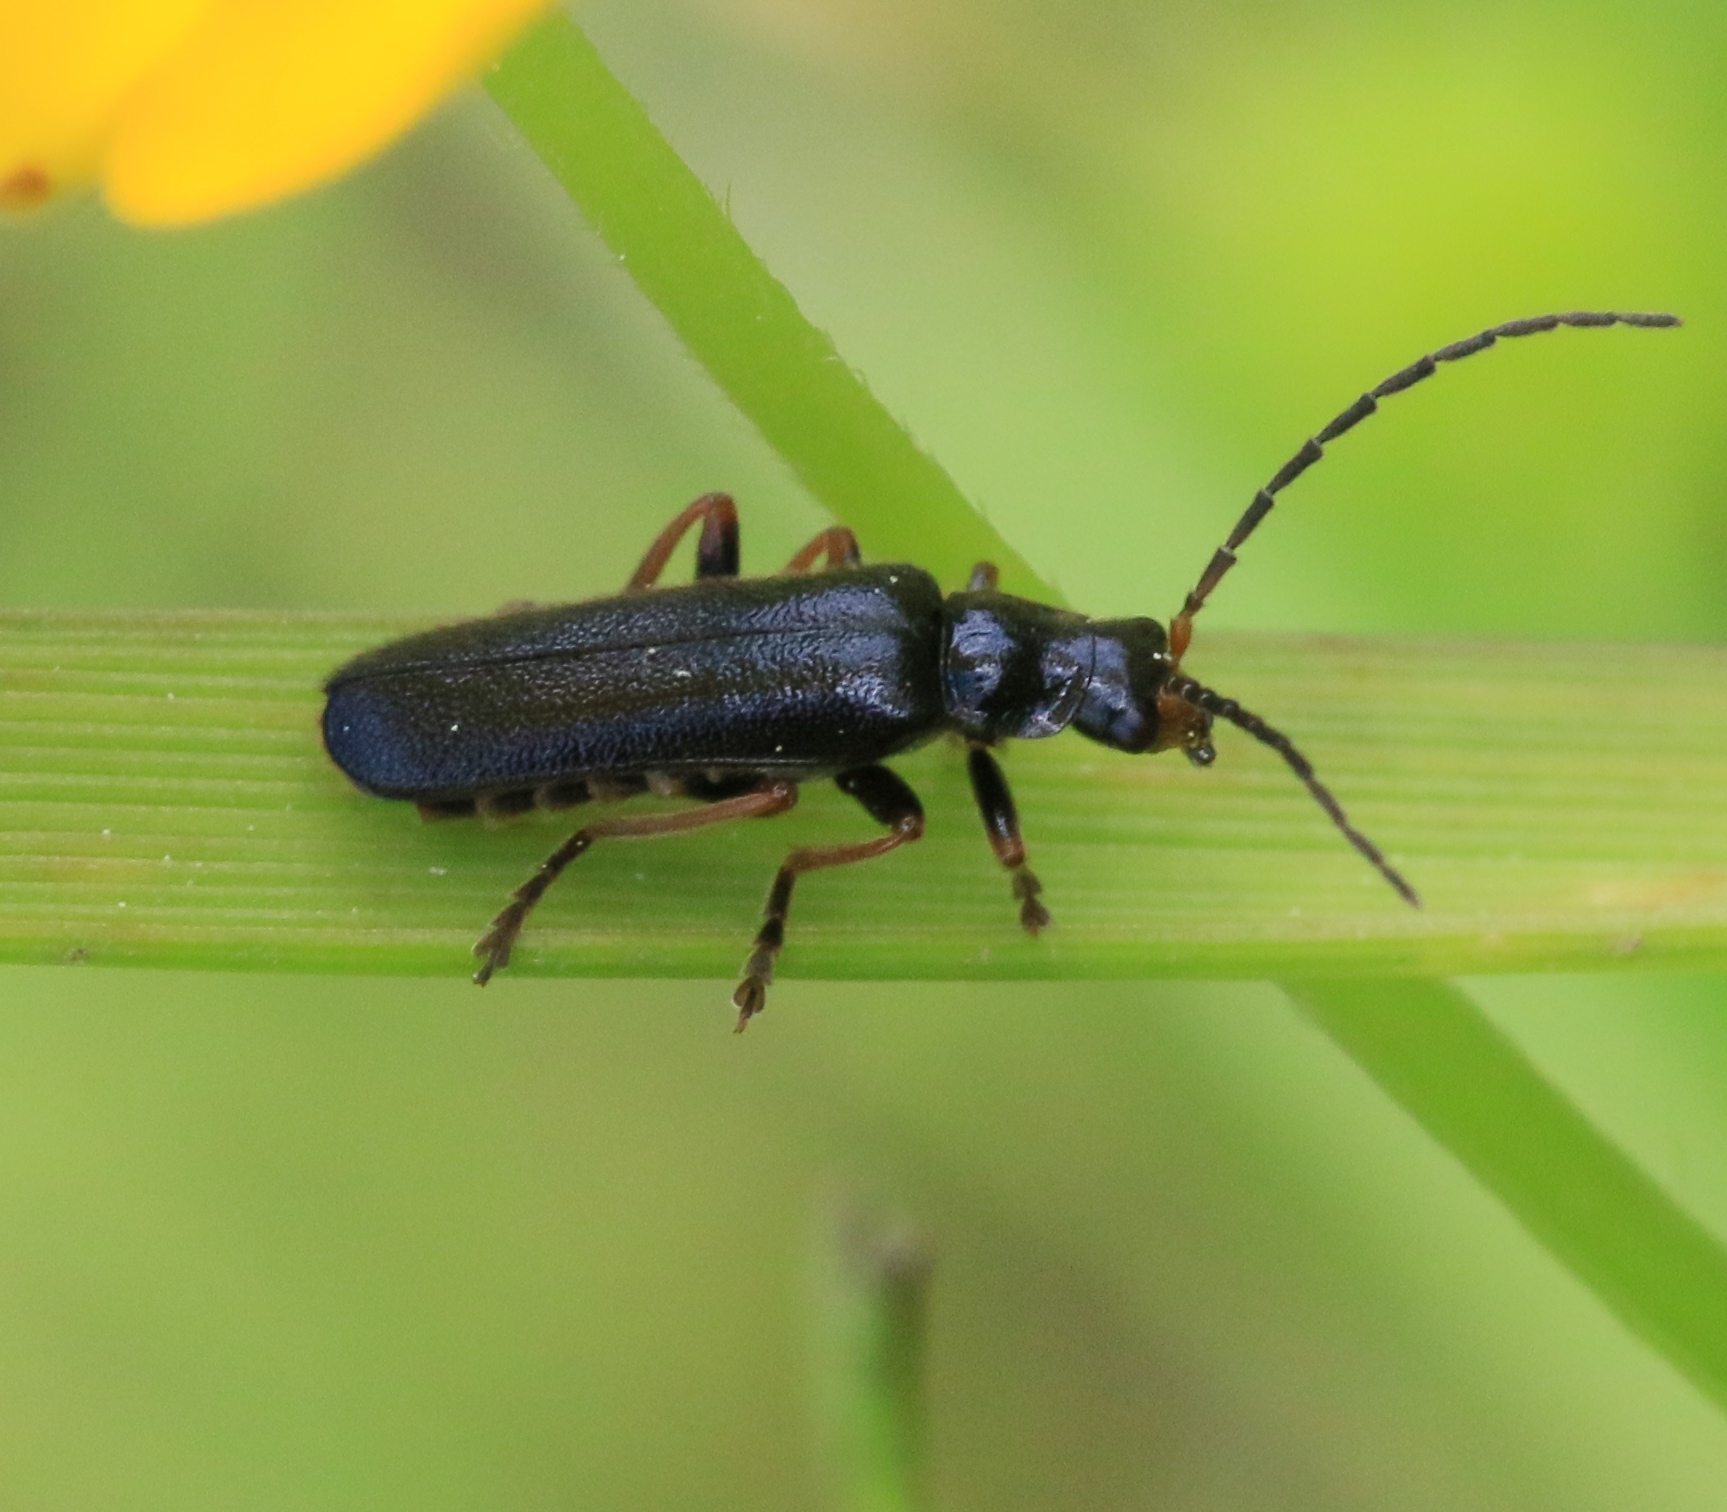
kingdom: Animalia
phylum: Arthropoda
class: Insecta
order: Coleoptera
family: Cantharidae
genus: Cantharis
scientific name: Cantharis flavilabris
